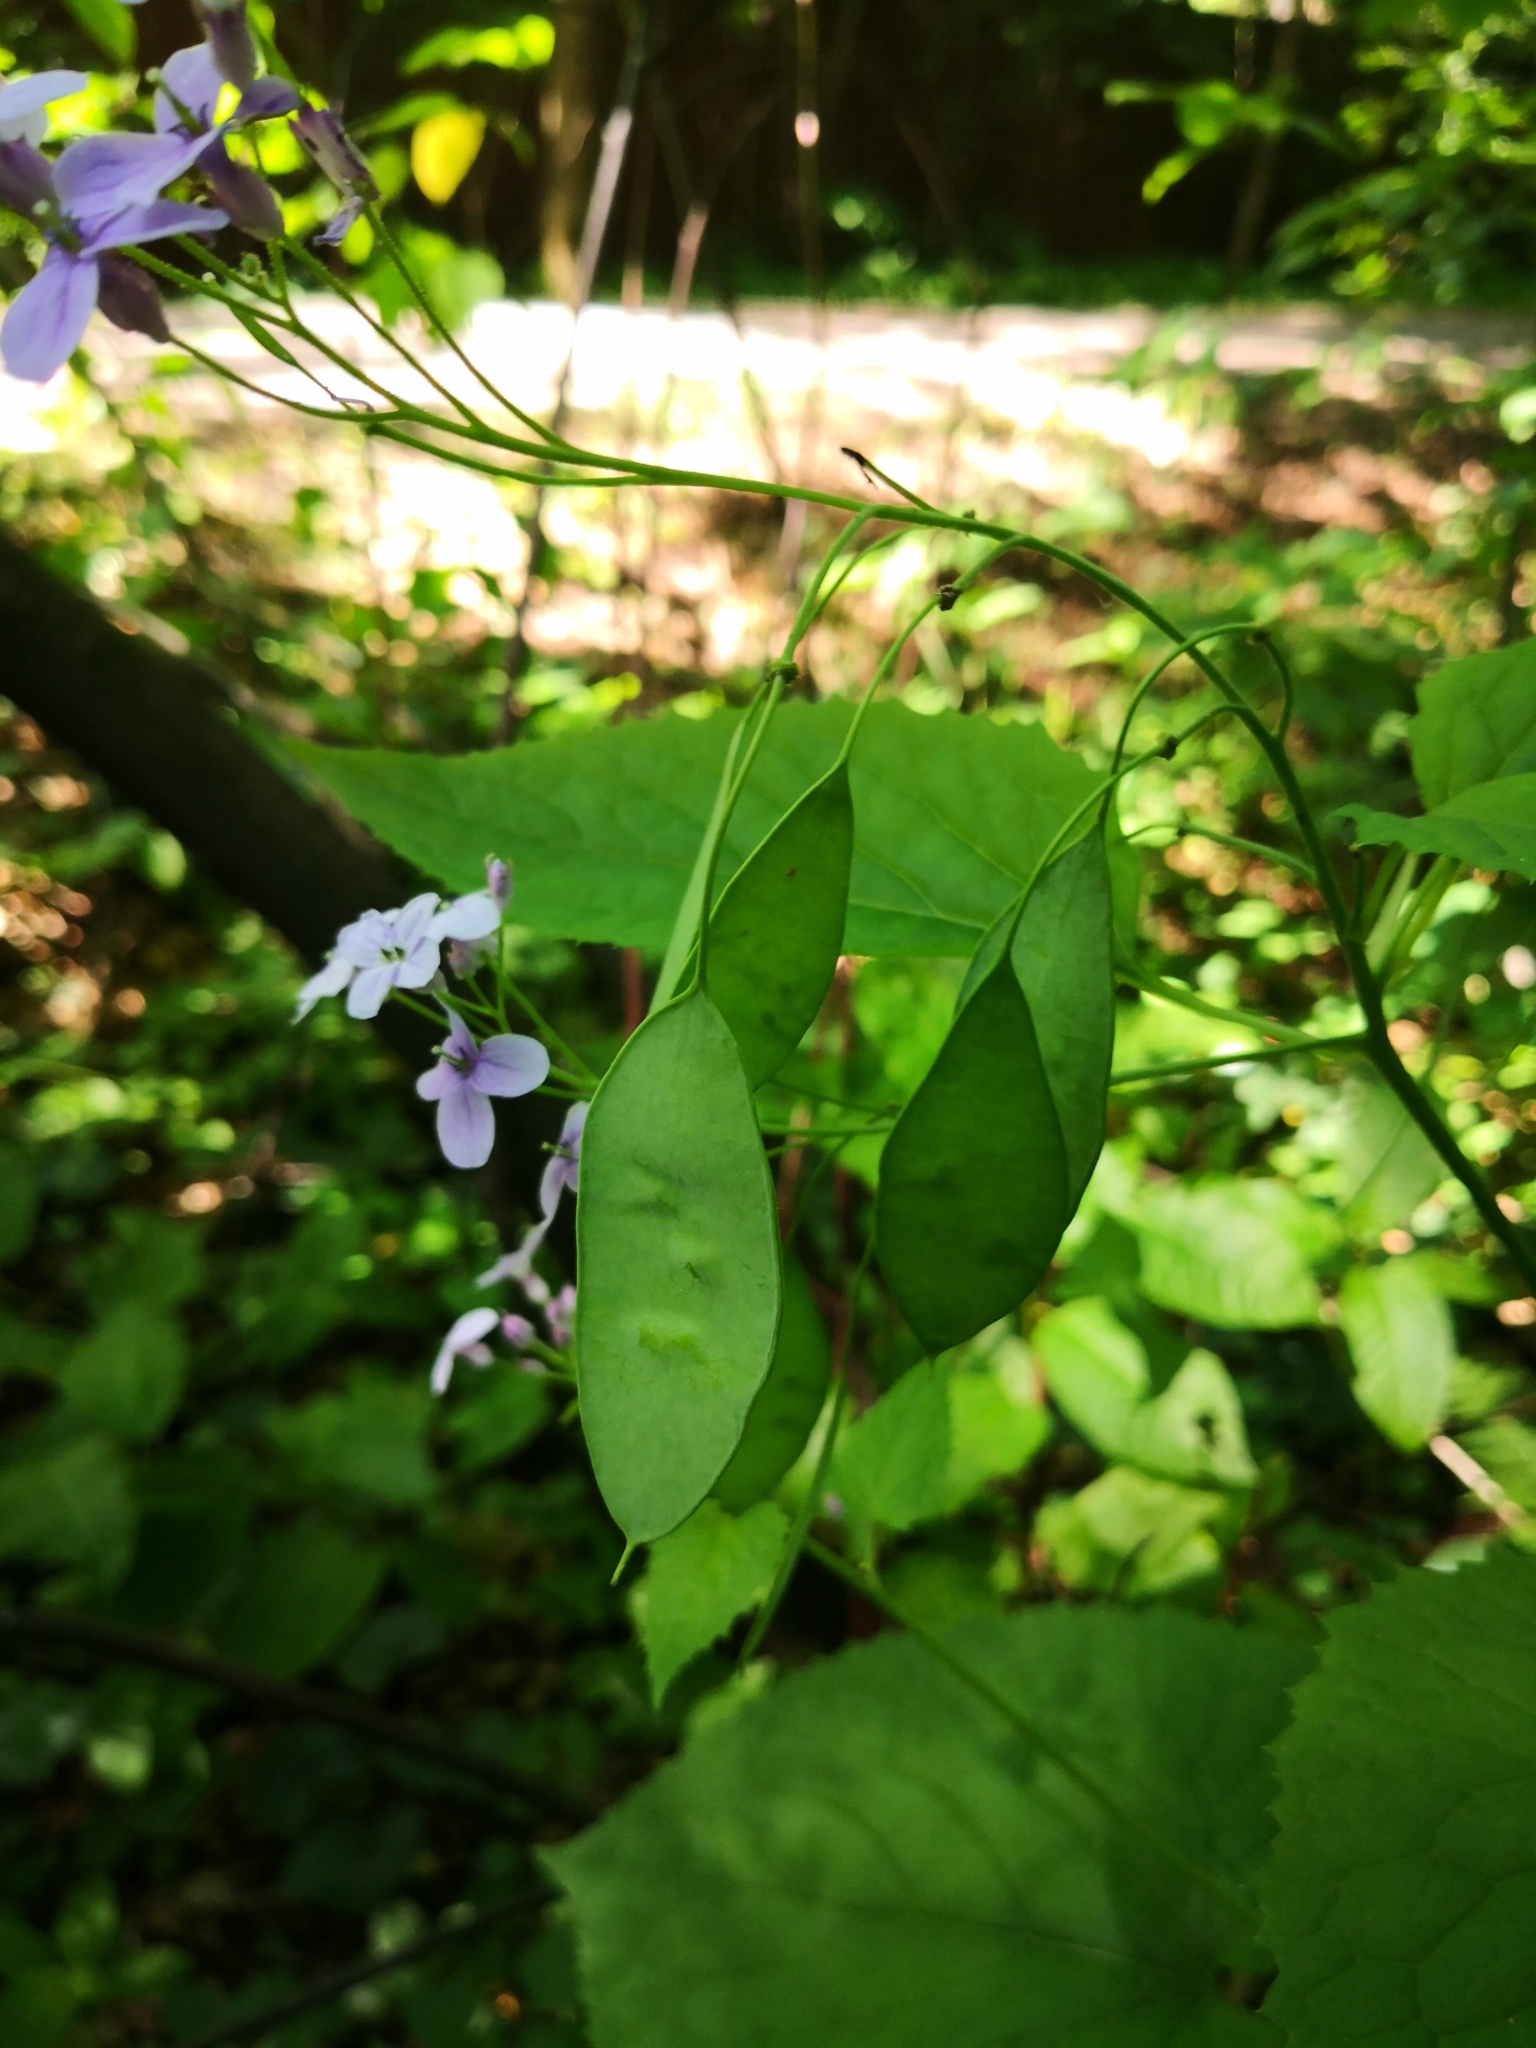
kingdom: Plantae
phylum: Tracheophyta
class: Magnoliopsida
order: Brassicales
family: Brassicaceae
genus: Lunaria
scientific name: Lunaria rediviva
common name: Perennial honesty
